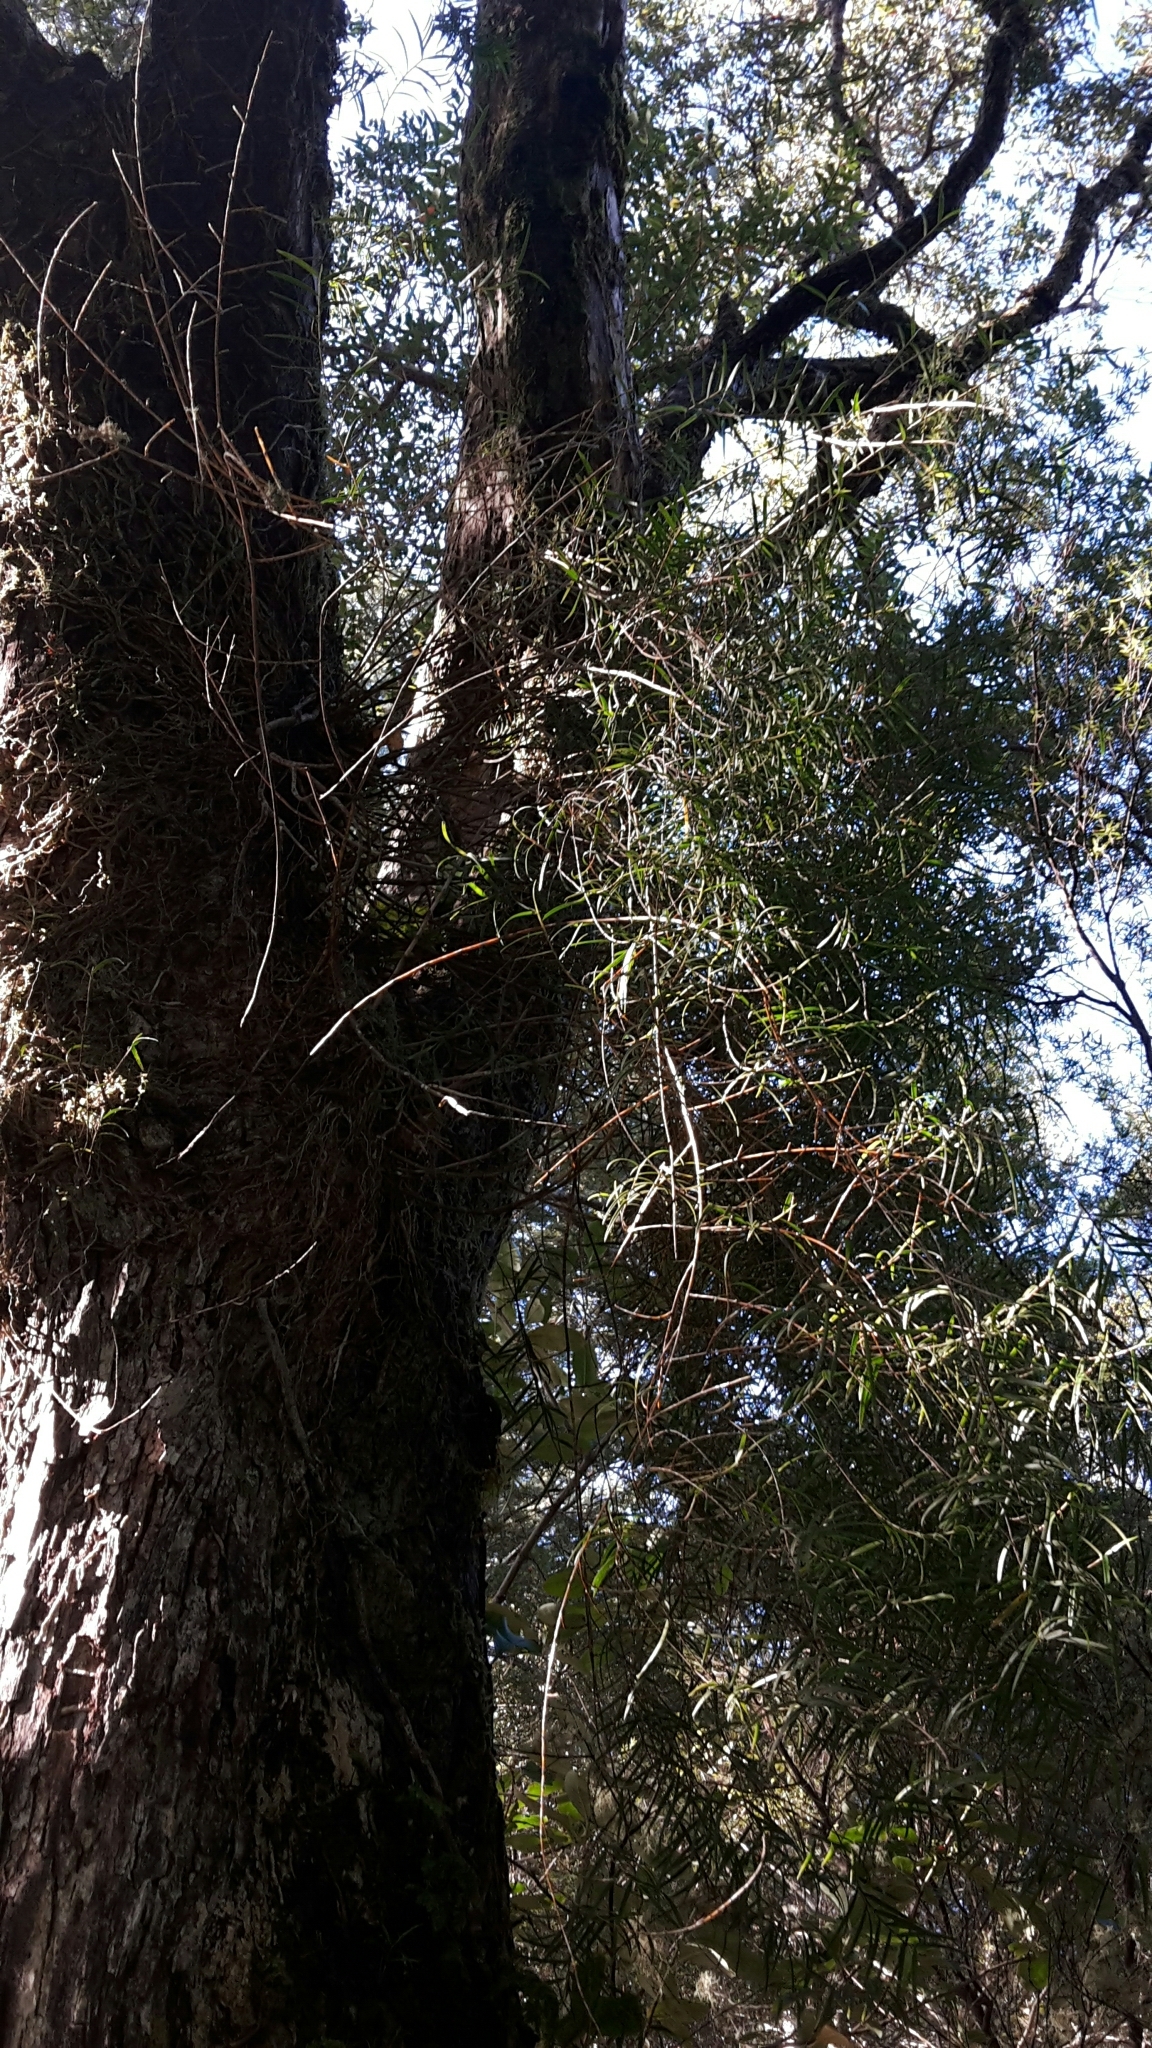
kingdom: Plantae
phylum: Tracheophyta
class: Liliopsida
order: Asparagales
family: Orchidaceae
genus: Dendrobium
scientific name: Dendrobium cunninghamii
